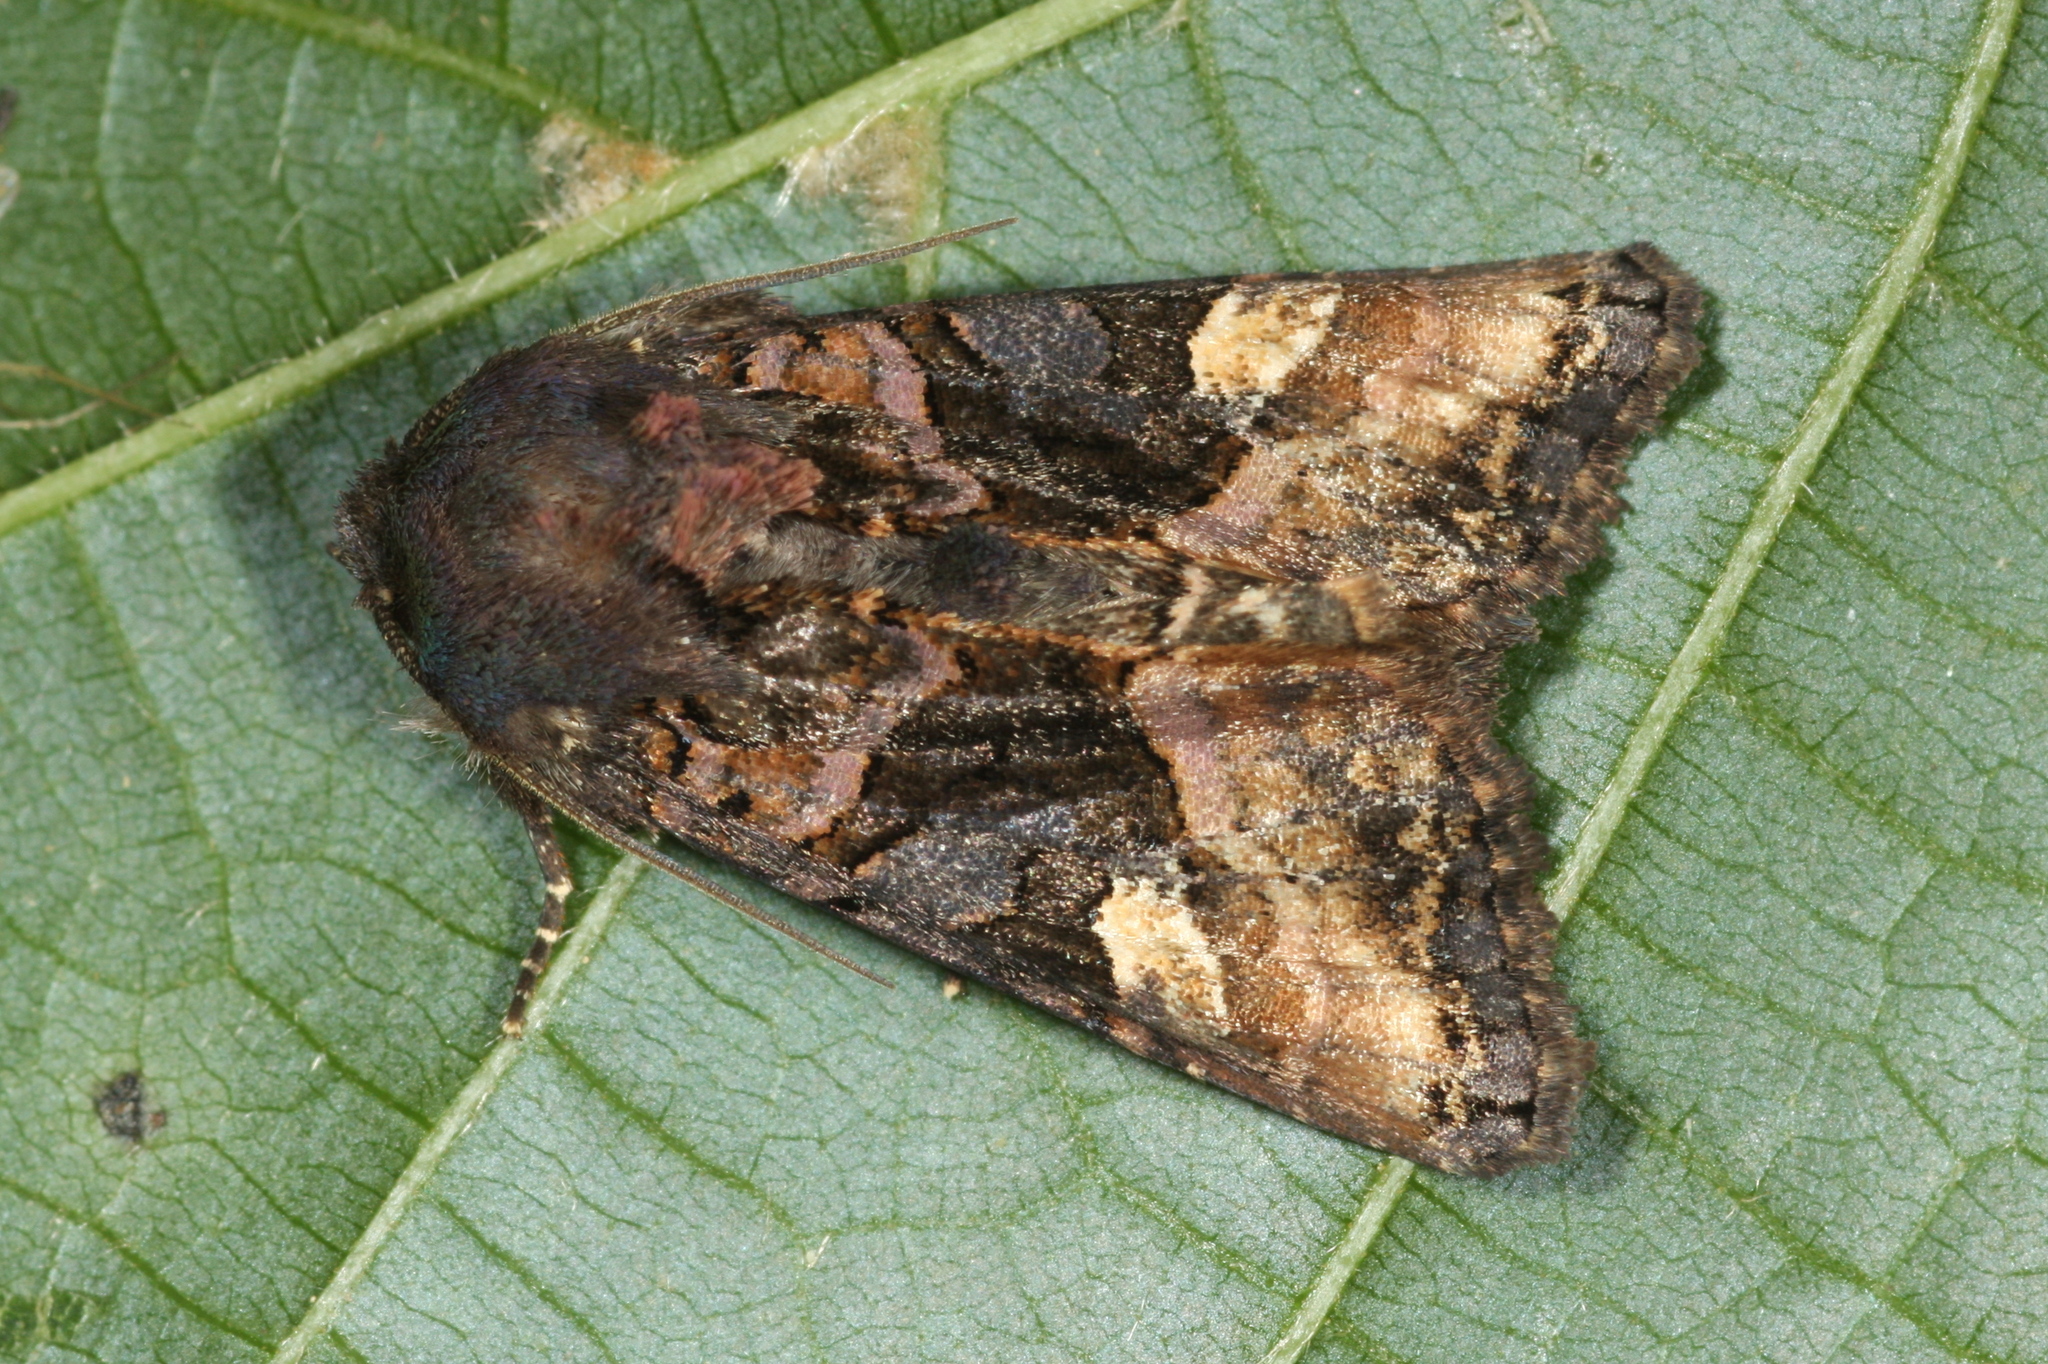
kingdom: Animalia
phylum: Arthropoda
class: Insecta
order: Lepidoptera
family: Noctuidae
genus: Euplexia
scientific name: Euplexia lucipara
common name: Small angle shades
